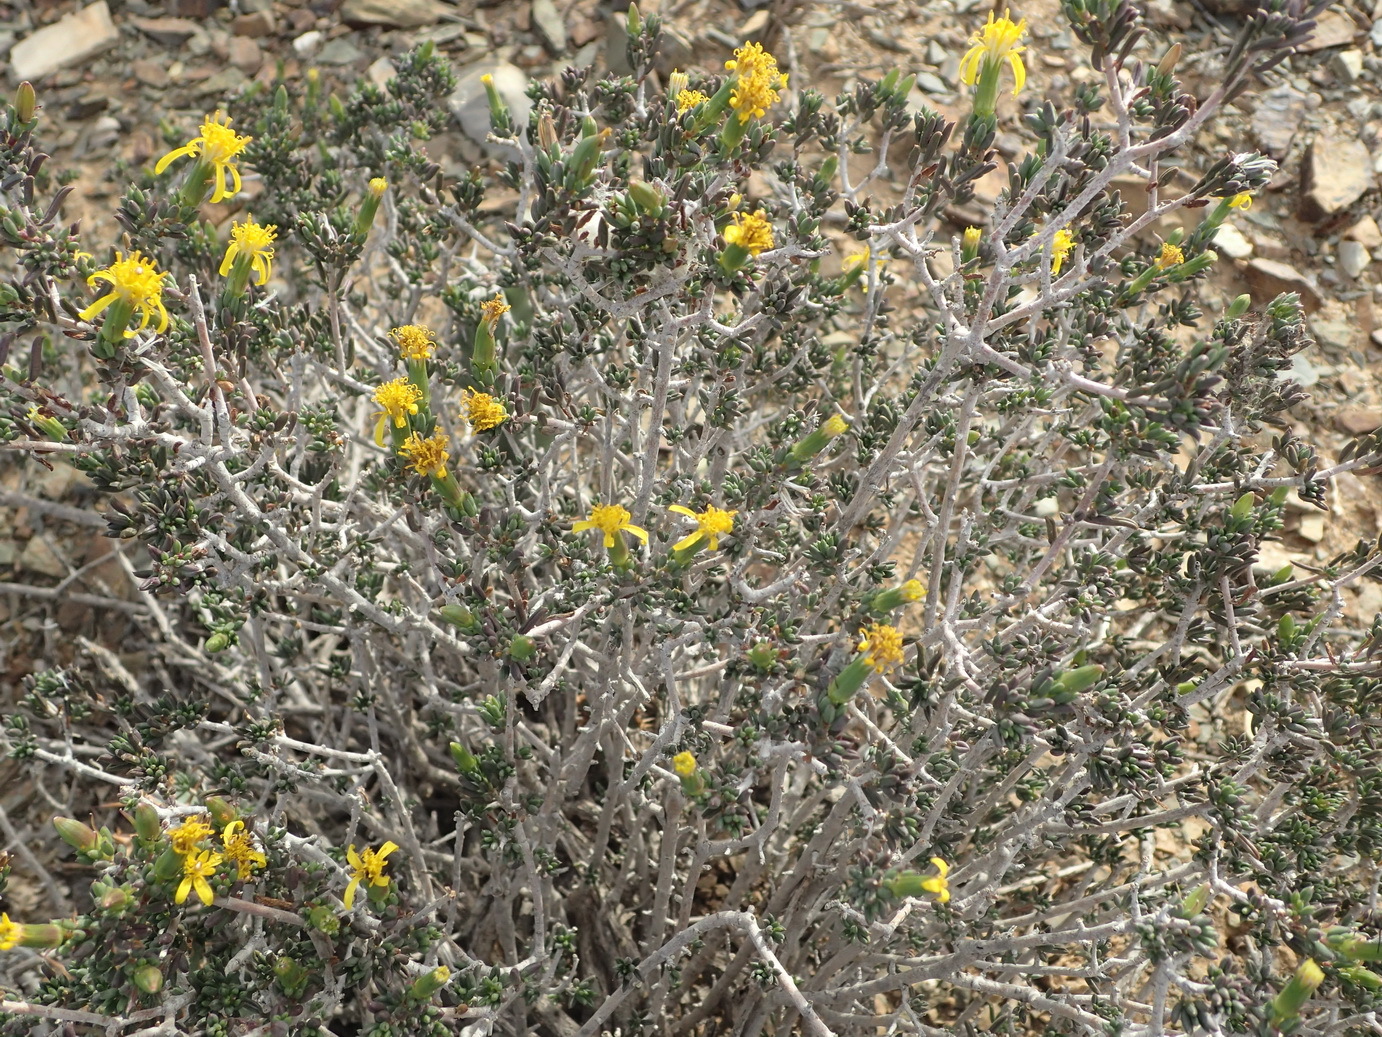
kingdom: Plantae
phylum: Tracheophyta
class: Magnoliopsida
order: Asterales
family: Asteraceae
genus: Senecio
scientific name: Senecio acutifolius
